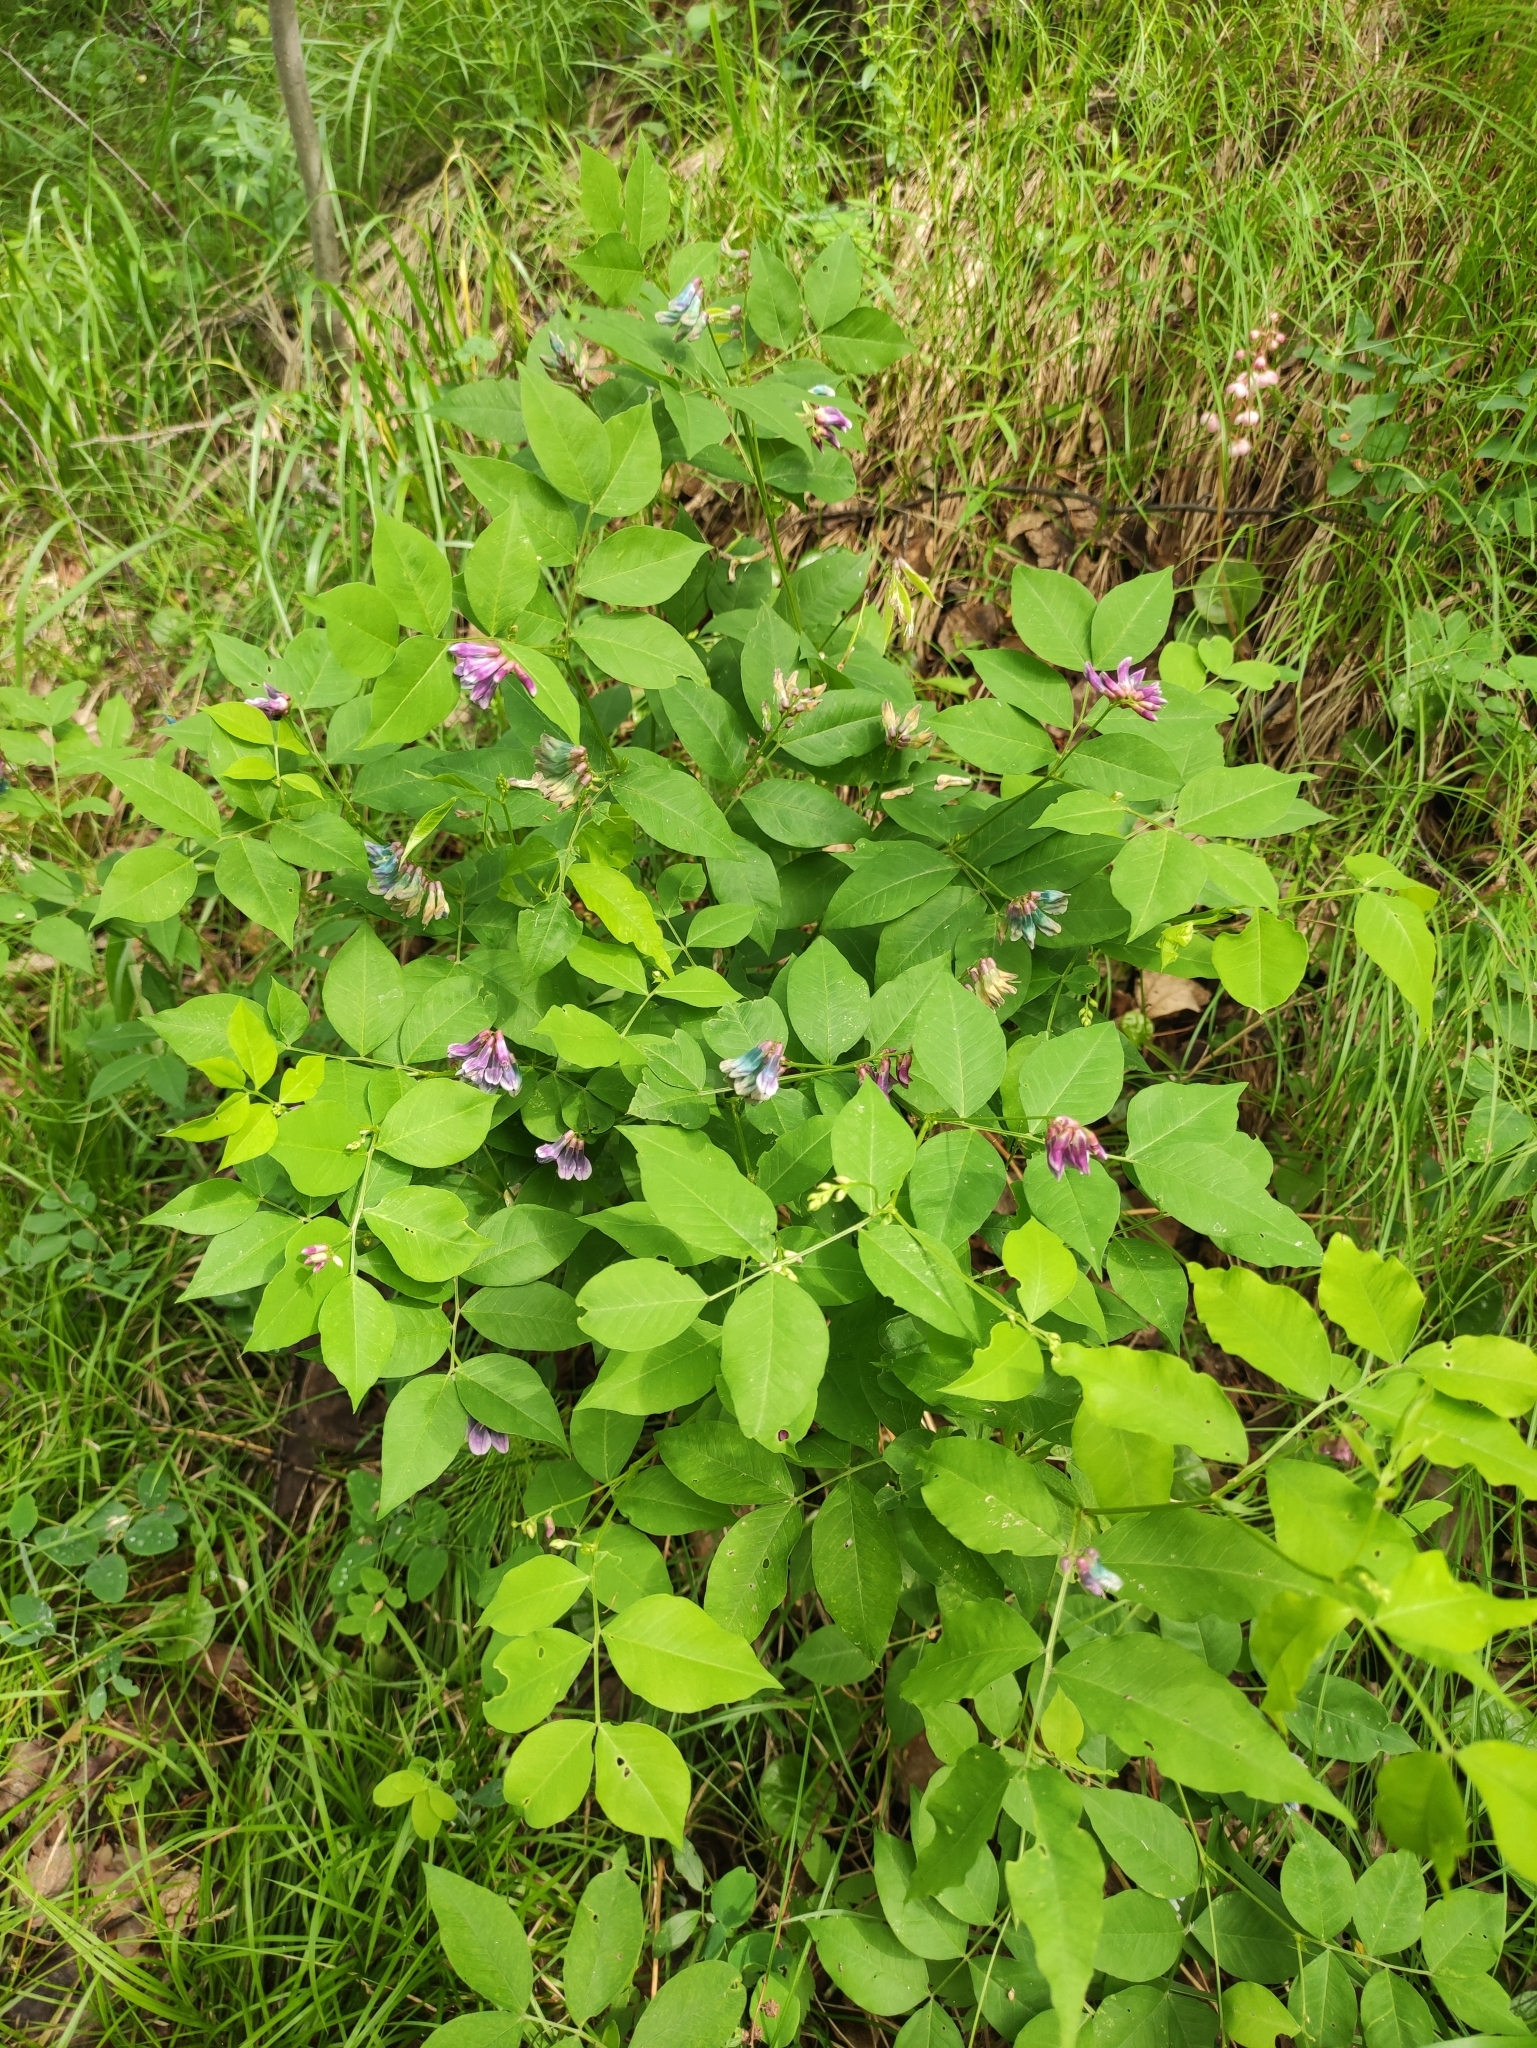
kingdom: Plantae
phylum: Tracheophyta
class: Magnoliopsida
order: Fabales
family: Fabaceae
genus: Vicia
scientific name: Vicia ramuliflora
